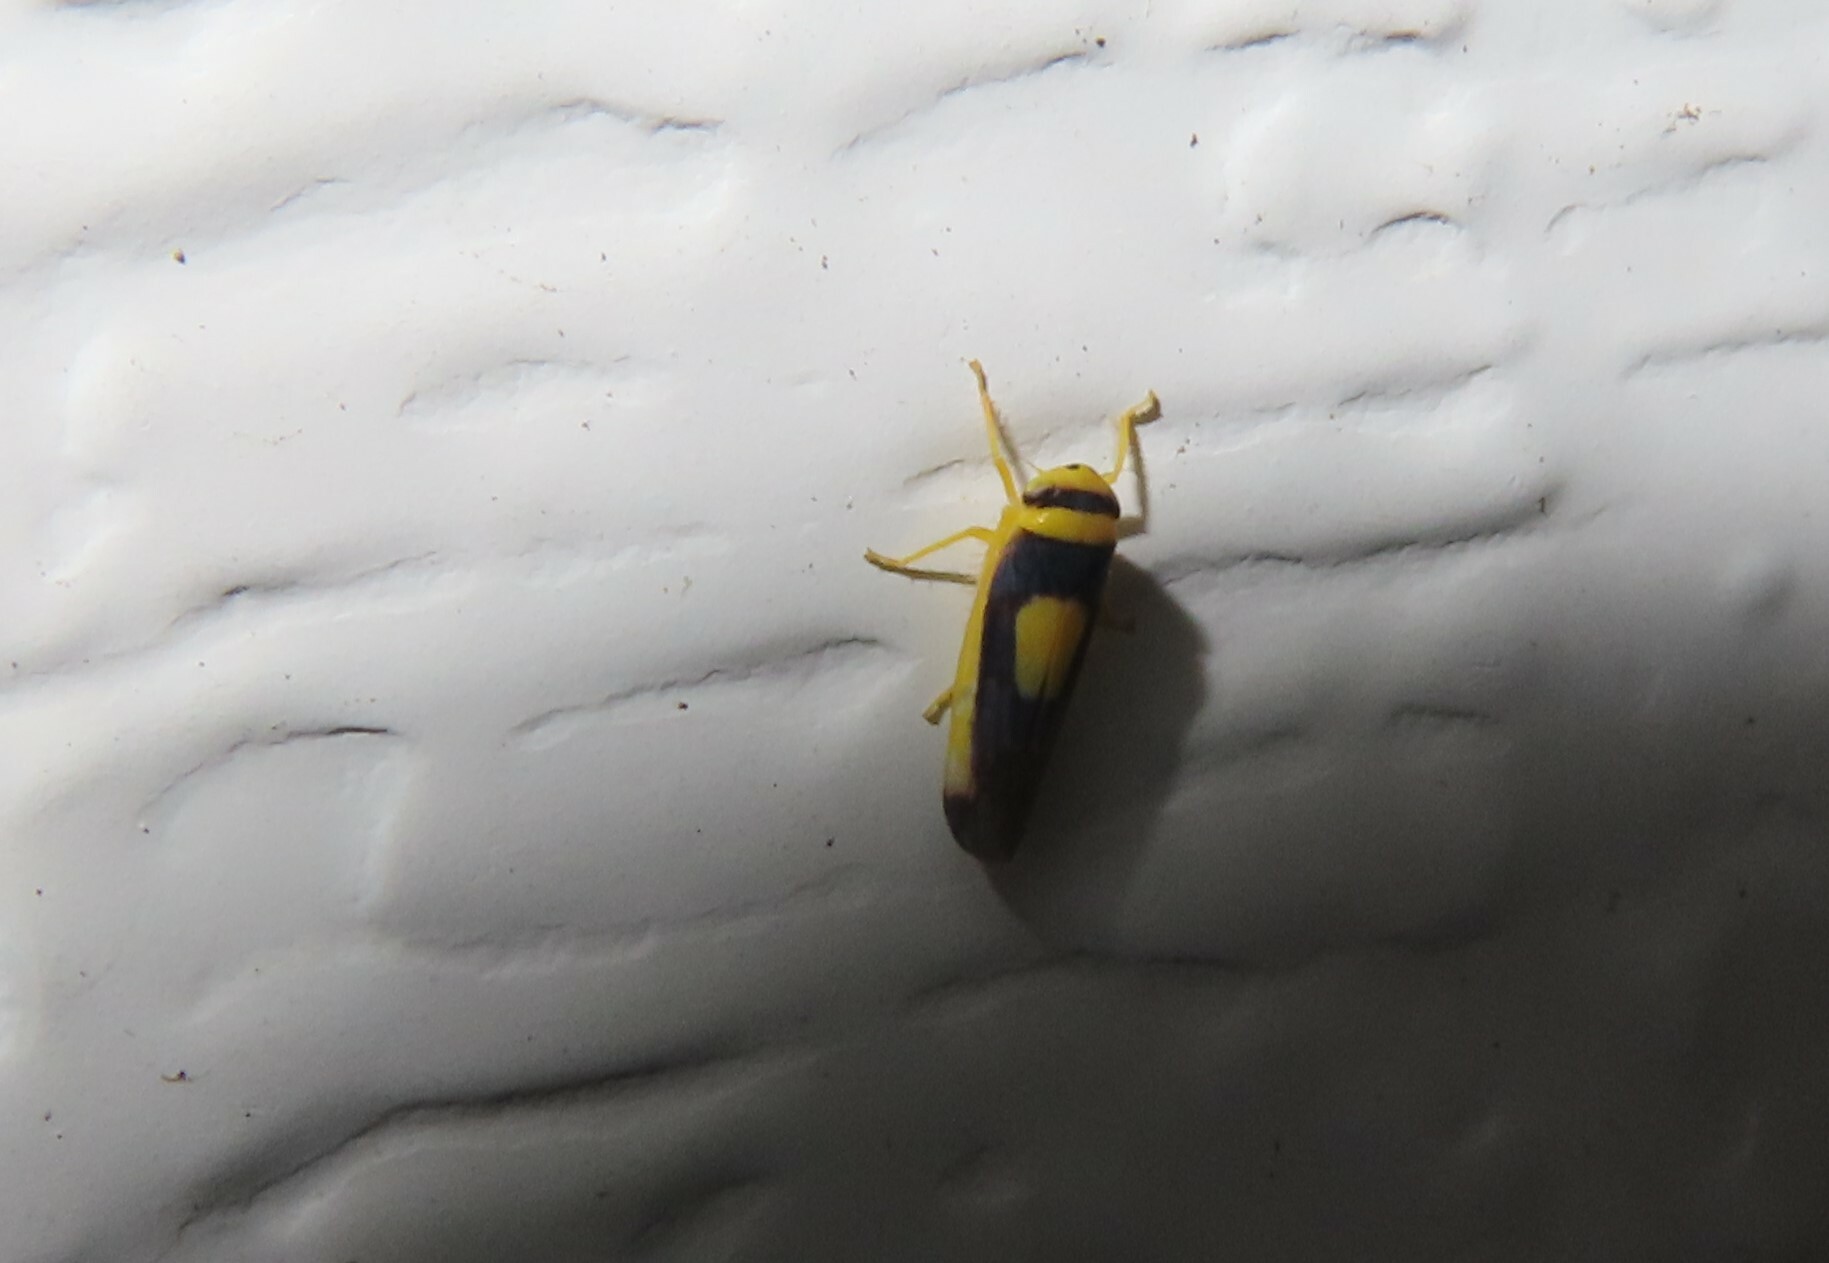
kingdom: Animalia
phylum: Arthropoda
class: Insecta
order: Hemiptera
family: Cicadellidae
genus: Colladonus
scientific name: Colladonus clitellarius
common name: The saddleback leafhopper
